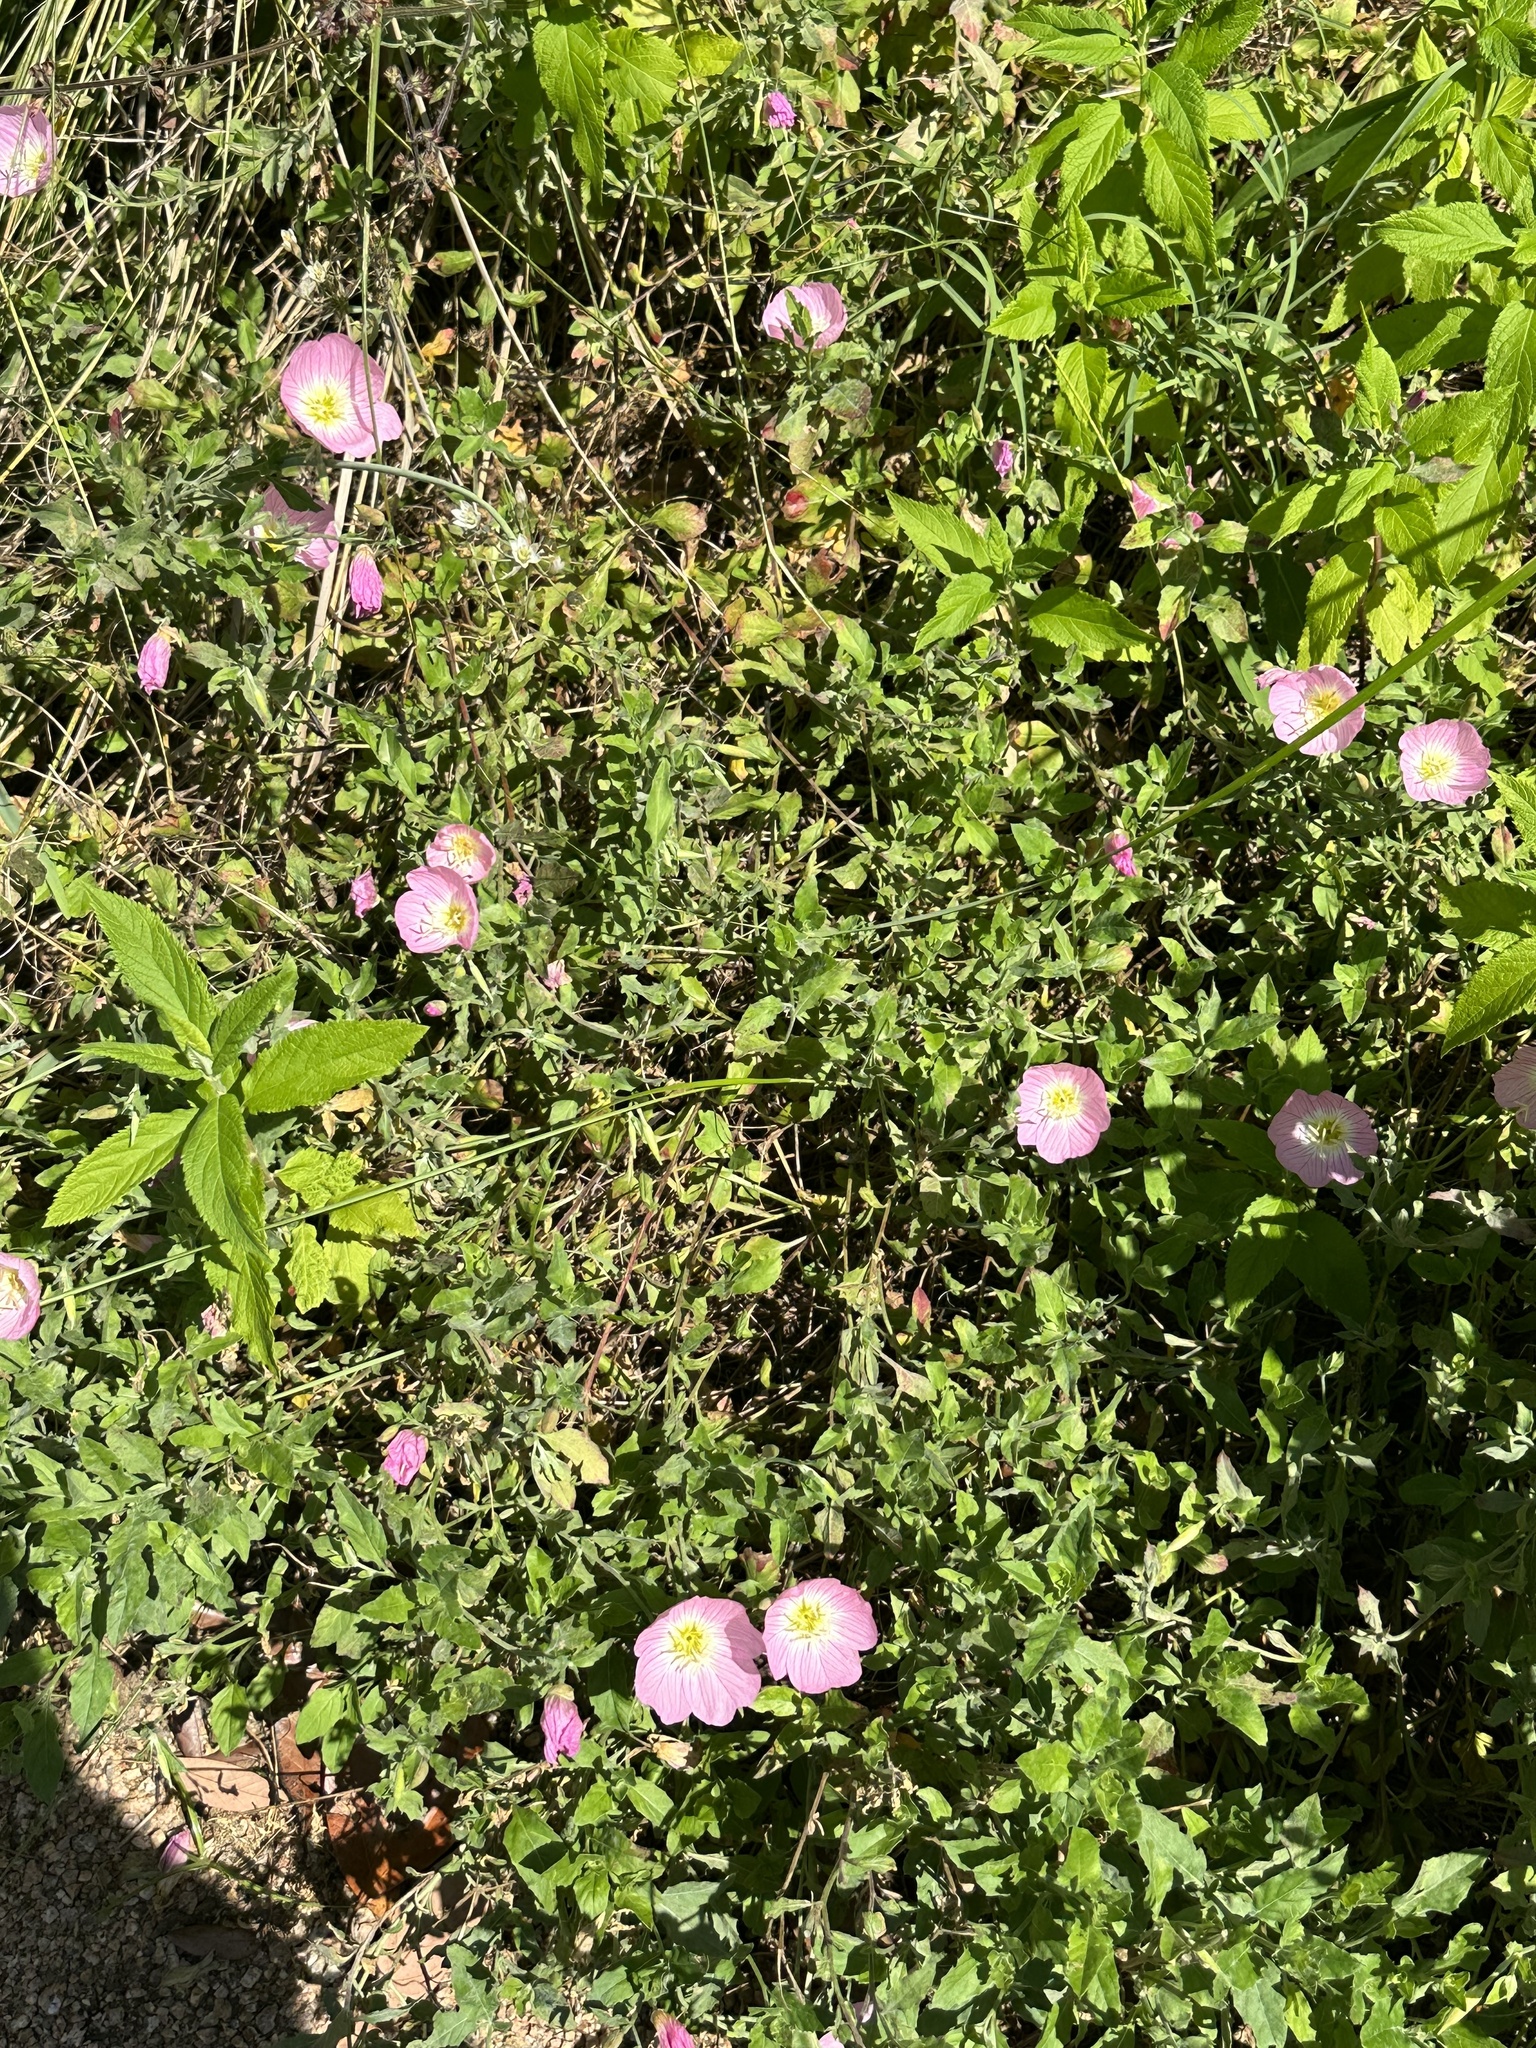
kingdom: Plantae
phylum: Tracheophyta
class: Magnoliopsida
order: Myrtales
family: Onagraceae
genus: Oenothera
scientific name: Oenothera speciosa
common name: White evening-primrose
